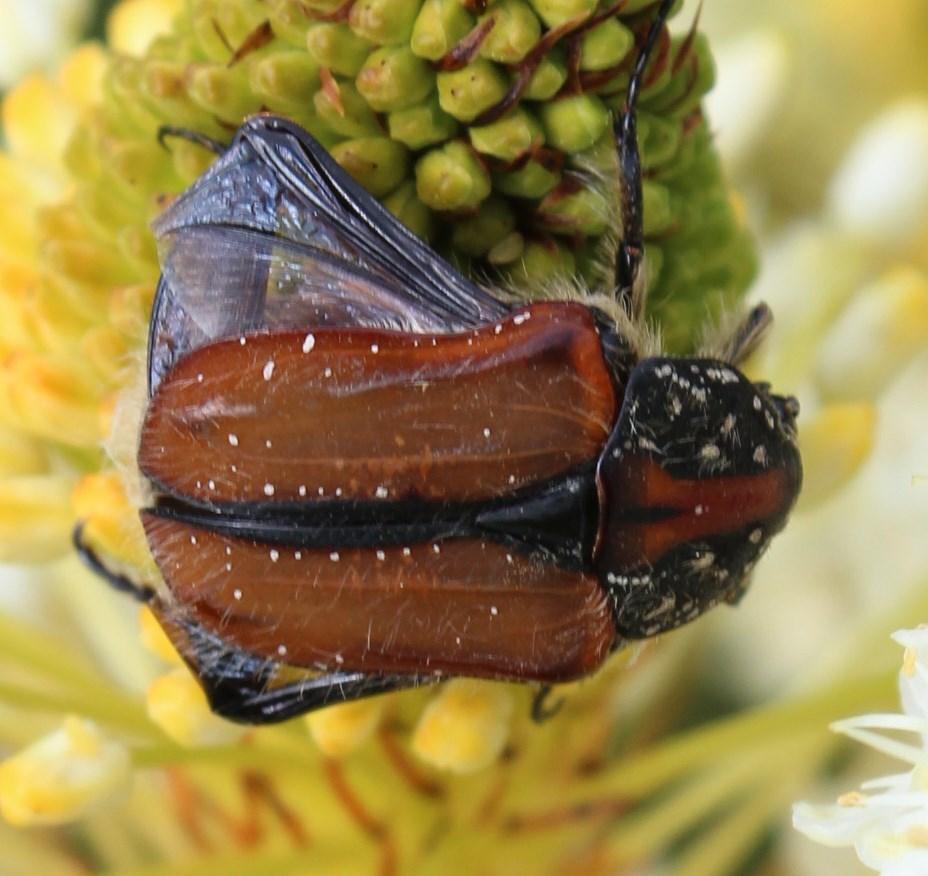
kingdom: Animalia
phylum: Arthropoda
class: Insecta
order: Coleoptera
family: Scarabaeidae
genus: Trichostetha
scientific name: Trichostetha capensis
